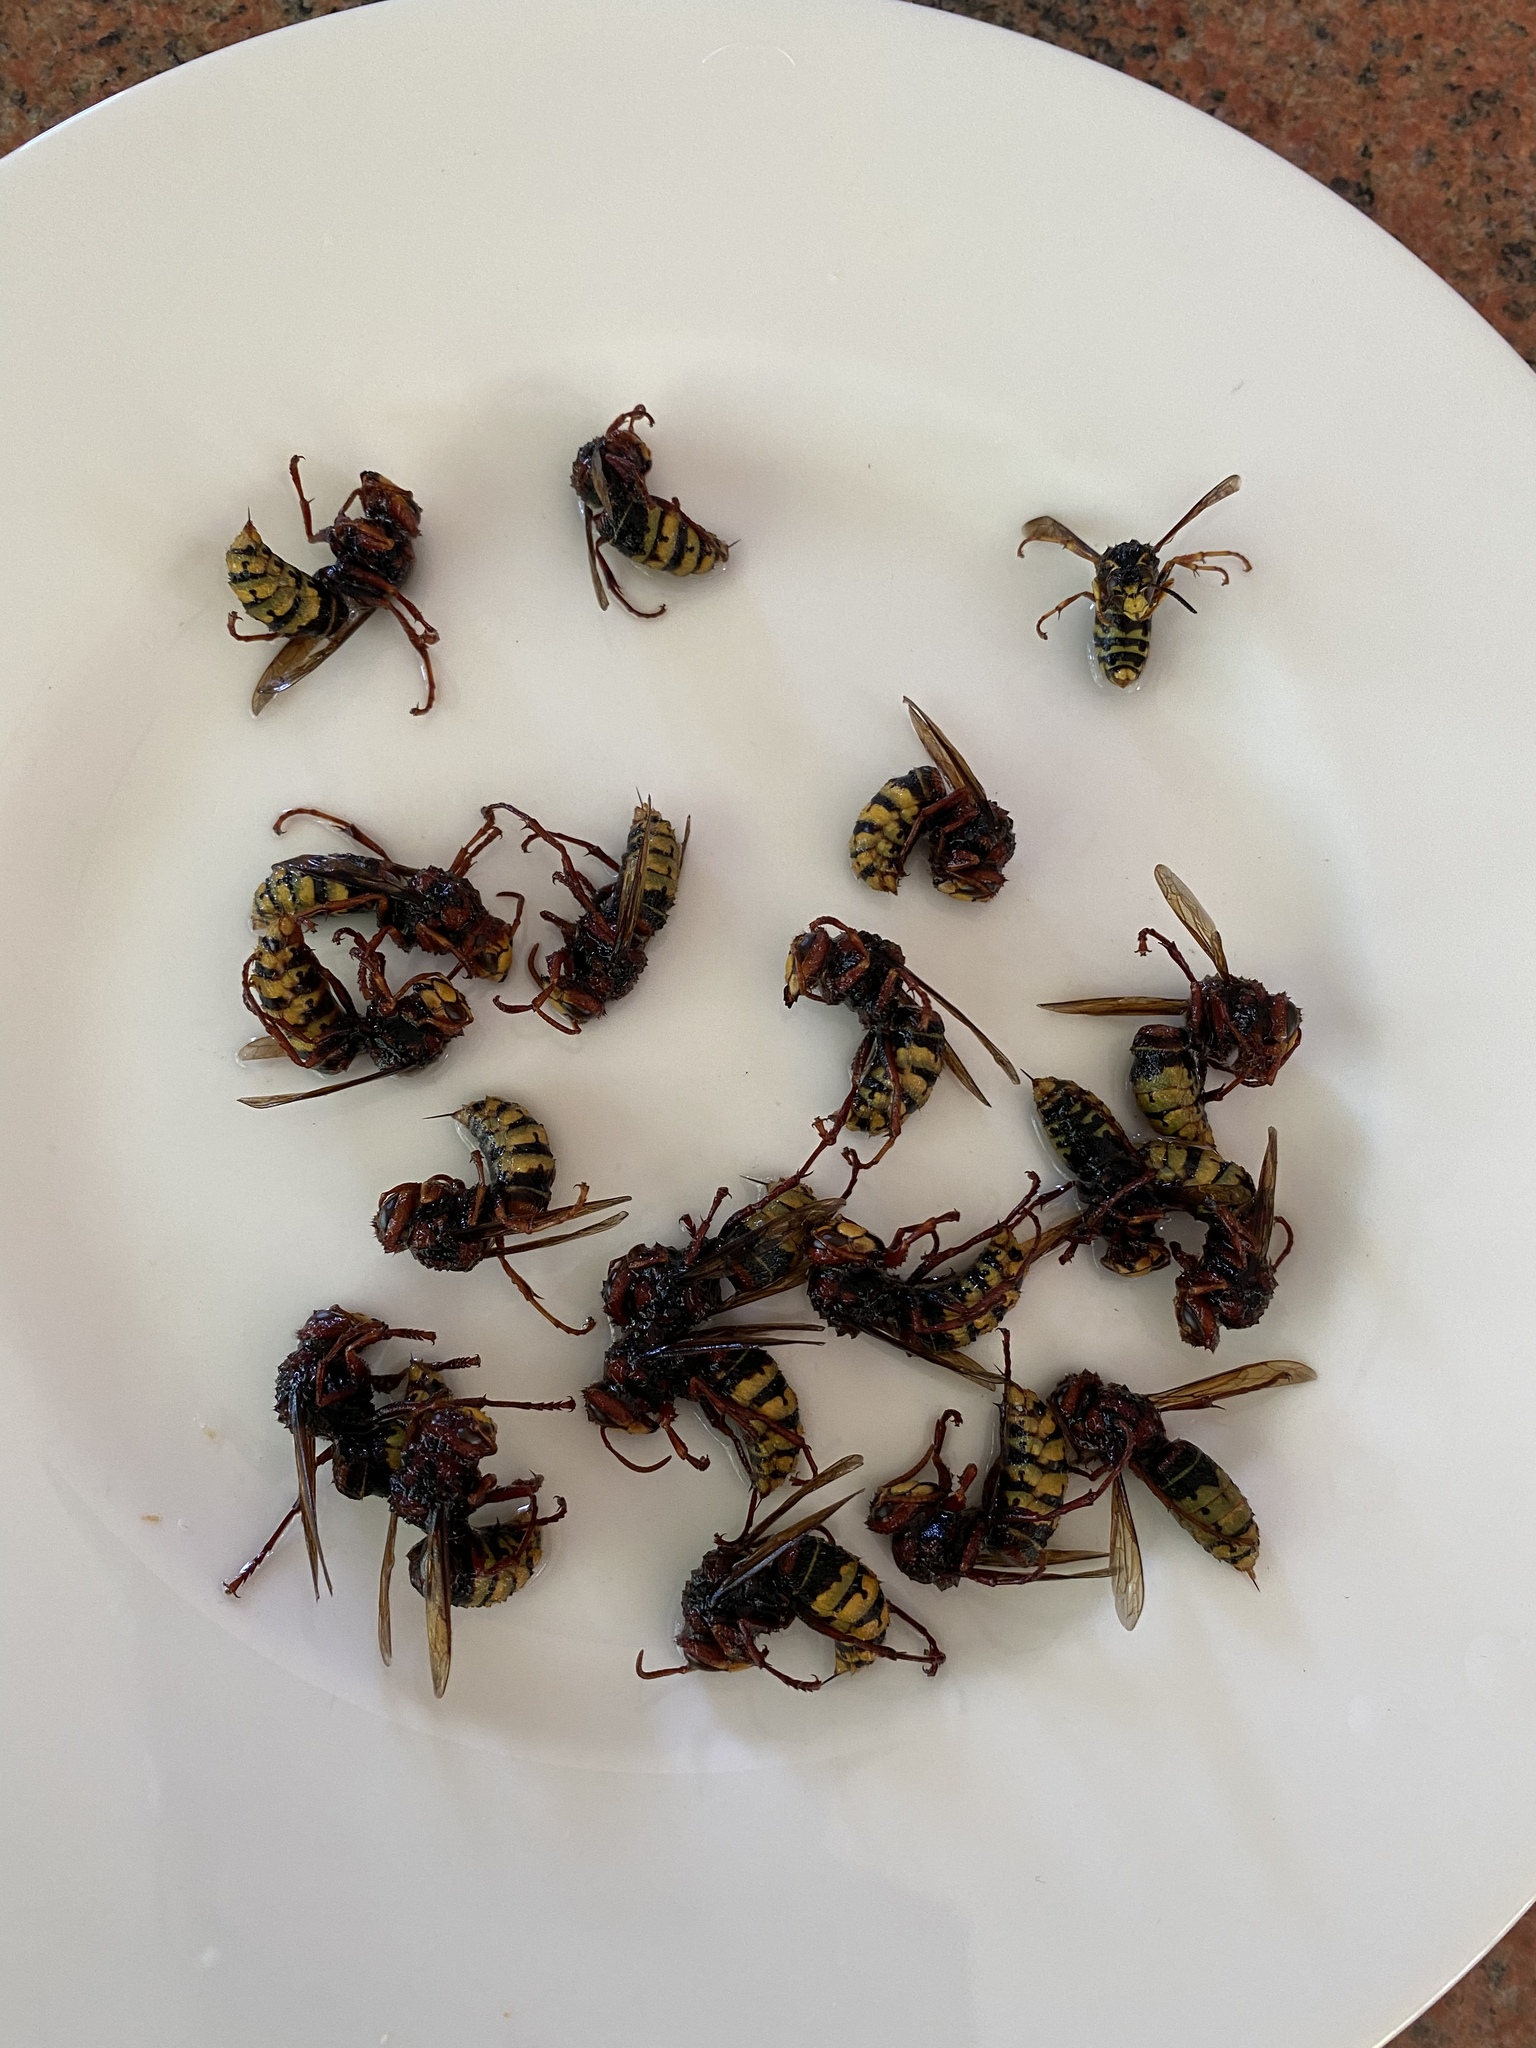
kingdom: Animalia
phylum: Arthropoda
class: Insecta
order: Hymenoptera
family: Vespidae
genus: Vespa
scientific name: Vespa crabro
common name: Hornet
